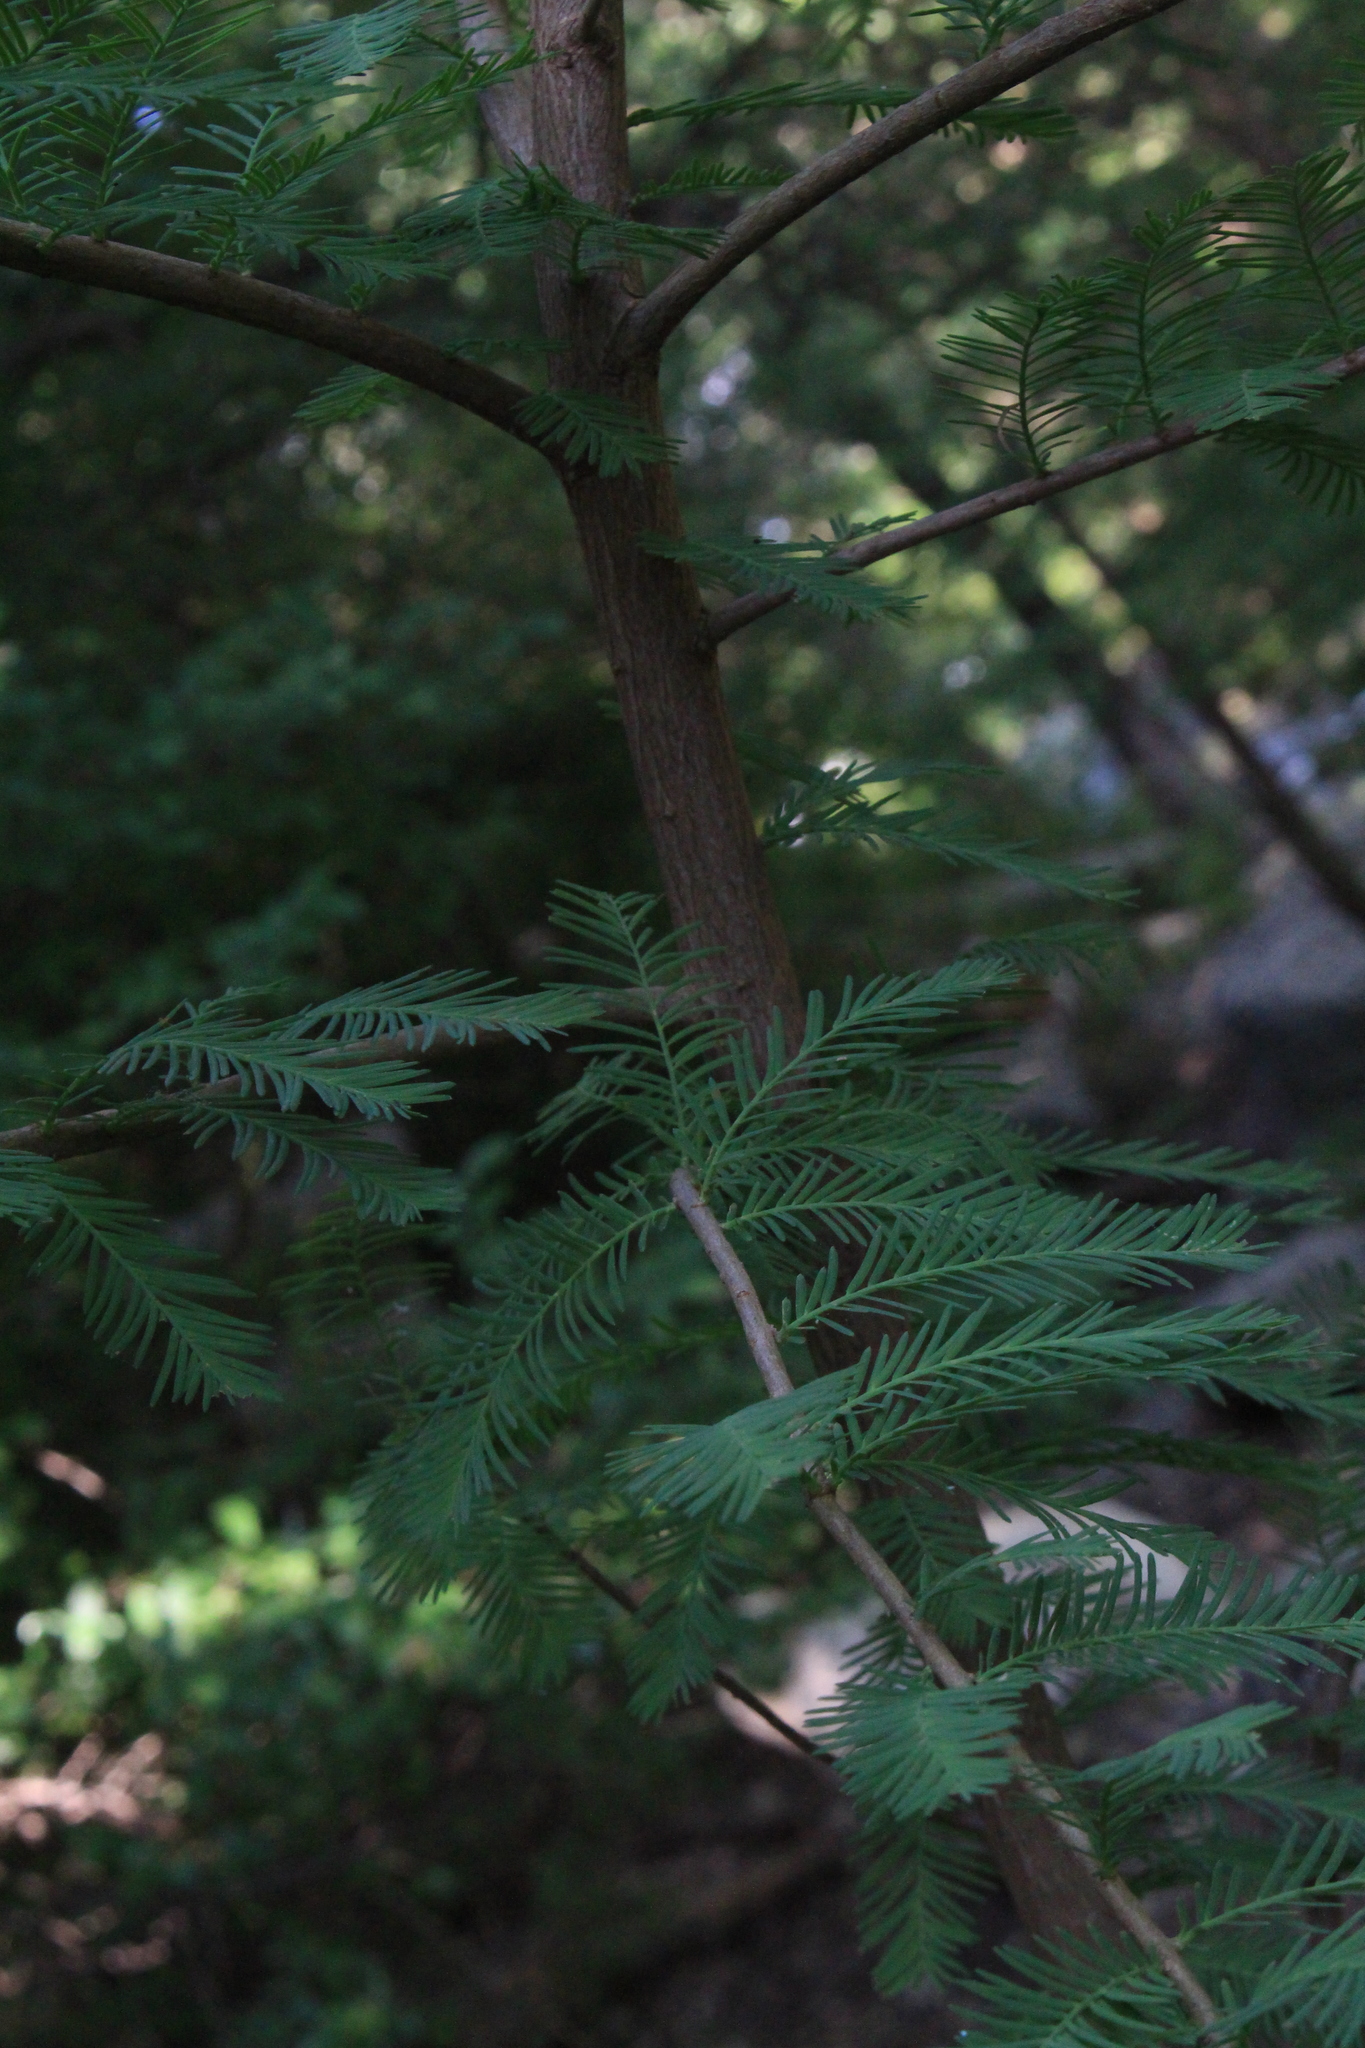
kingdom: Plantae
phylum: Tracheophyta
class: Pinopsida
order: Pinales
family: Cupressaceae
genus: Taxodium
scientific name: Taxodium distichum
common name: Bald cypress
